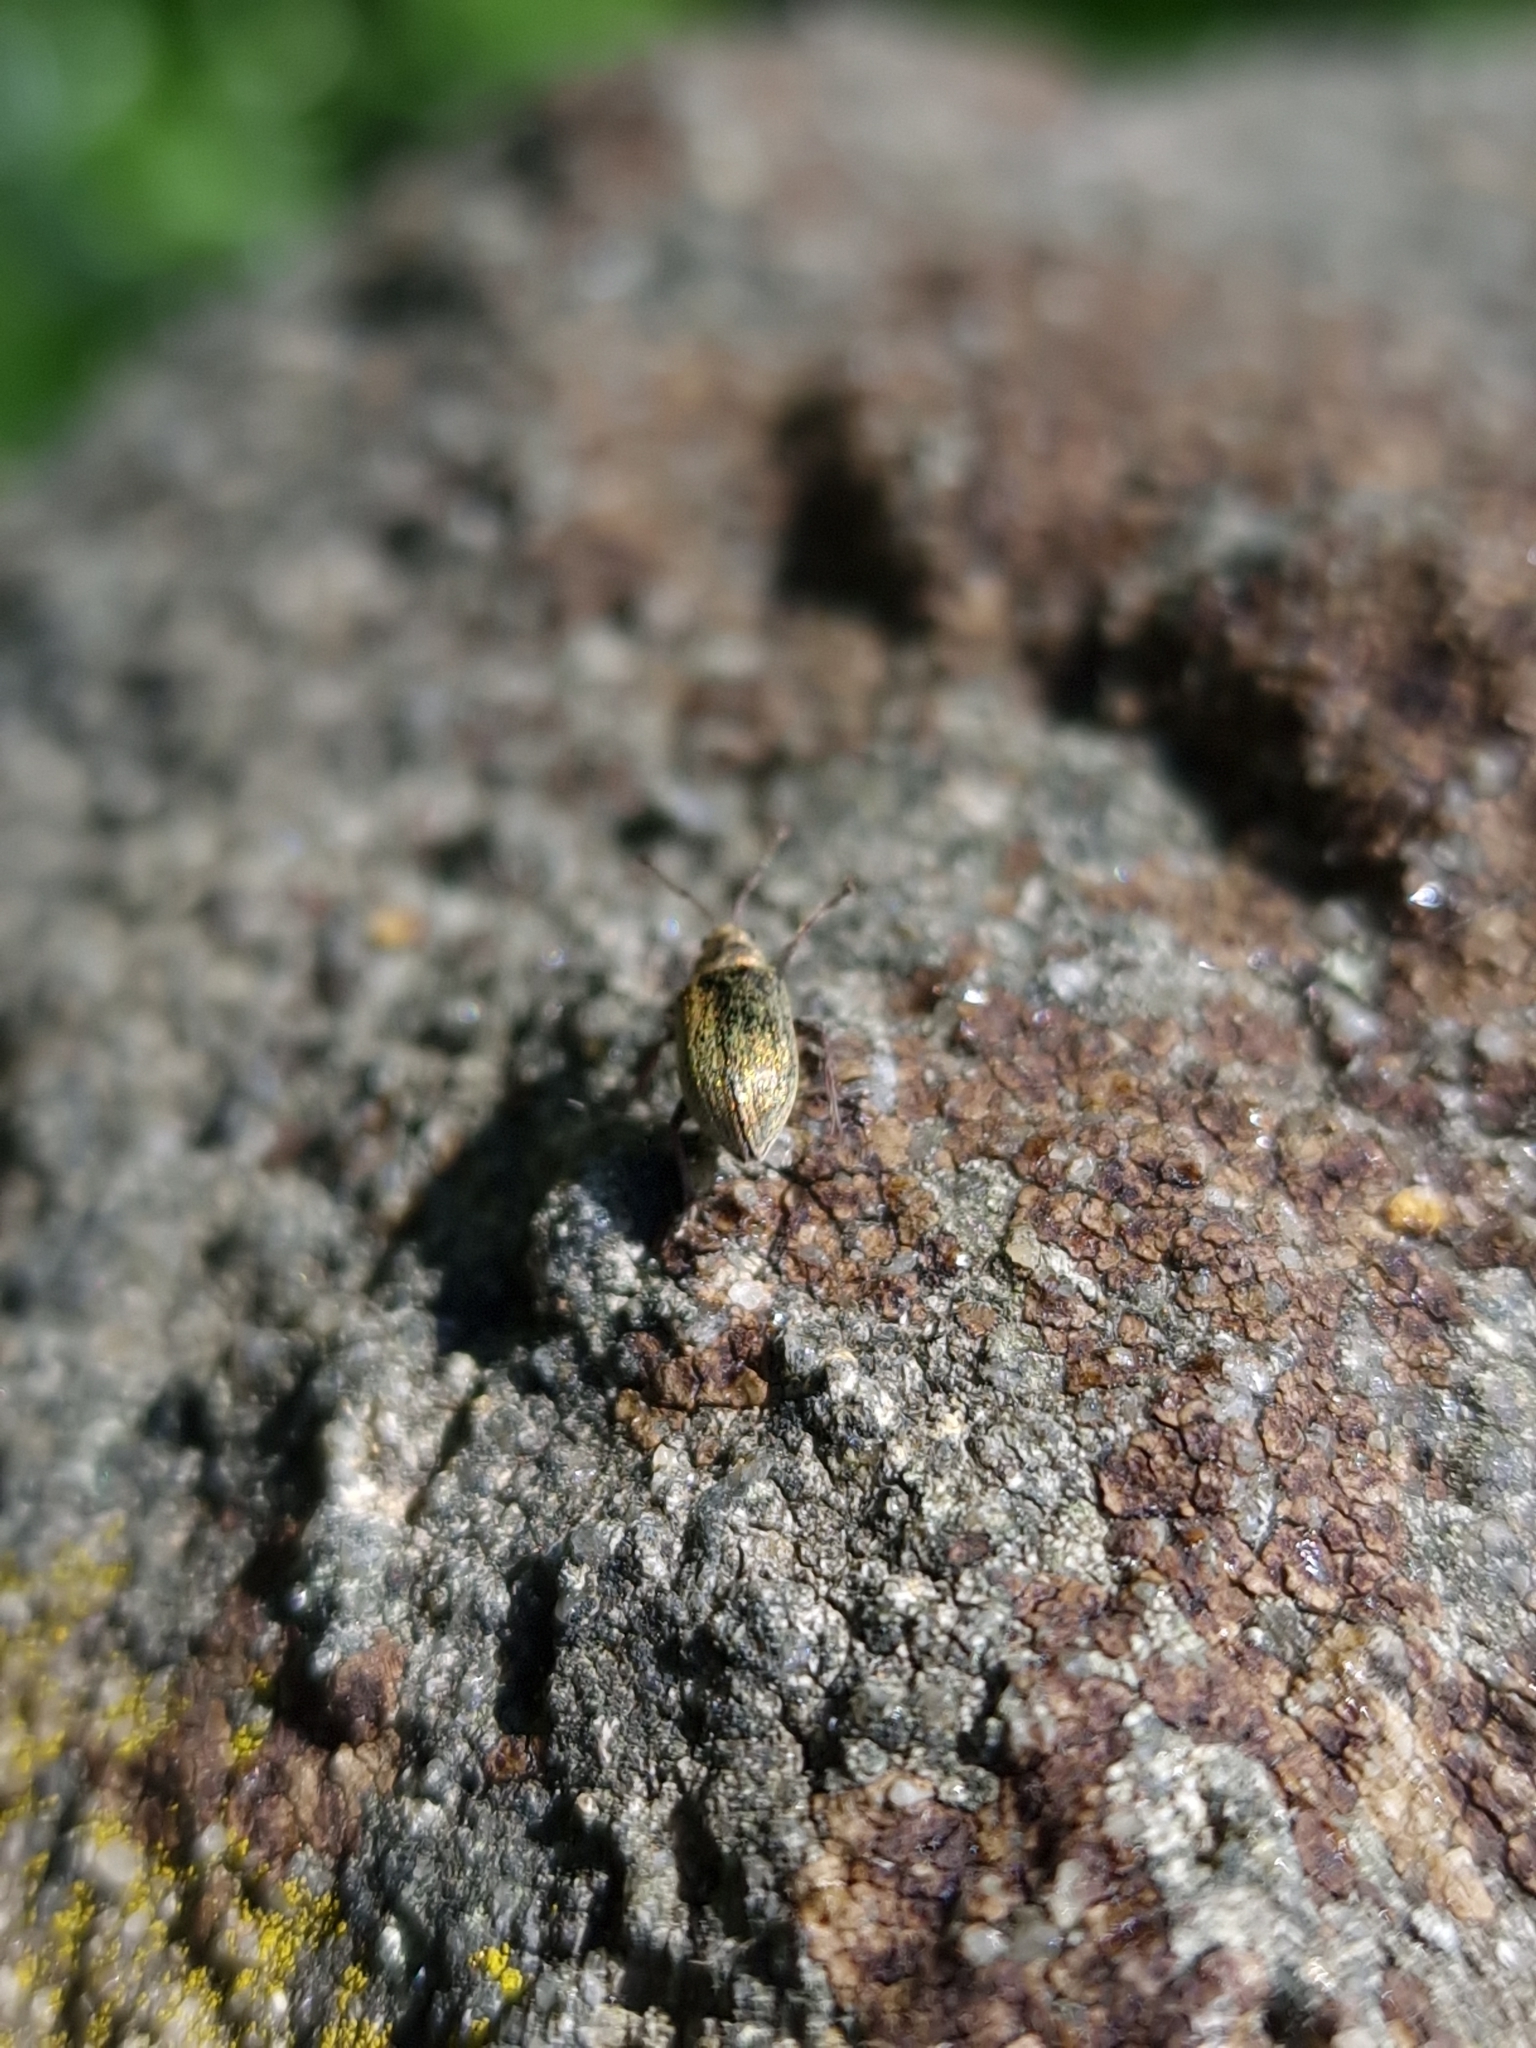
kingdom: Animalia
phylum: Arthropoda
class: Insecta
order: Coleoptera
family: Curculionidae
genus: Phyllobius
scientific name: Phyllobius pyri
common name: Common leaf weevil
